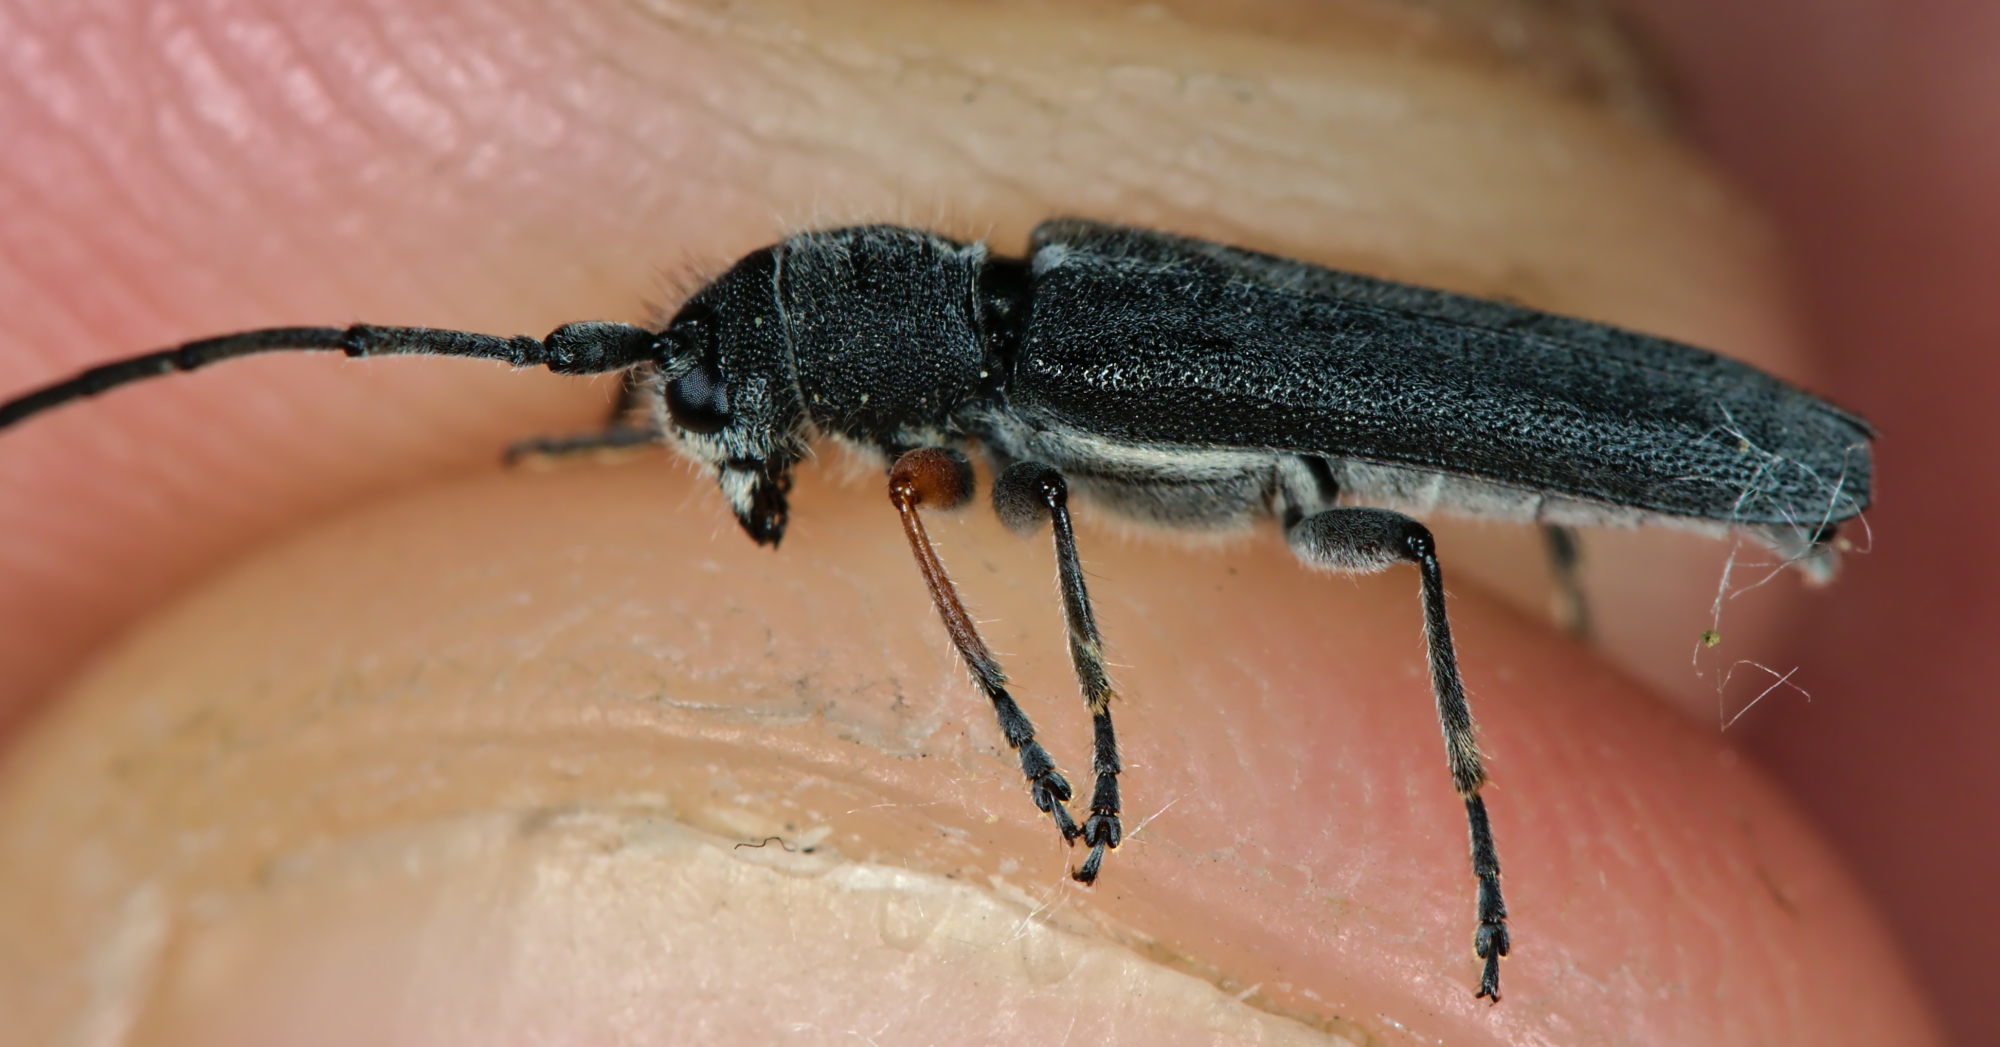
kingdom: Animalia
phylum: Arthropoda
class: Insecta
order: Coleoptera
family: Cerambycidae
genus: Phytoecia
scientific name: Phytoecia cylindrica
